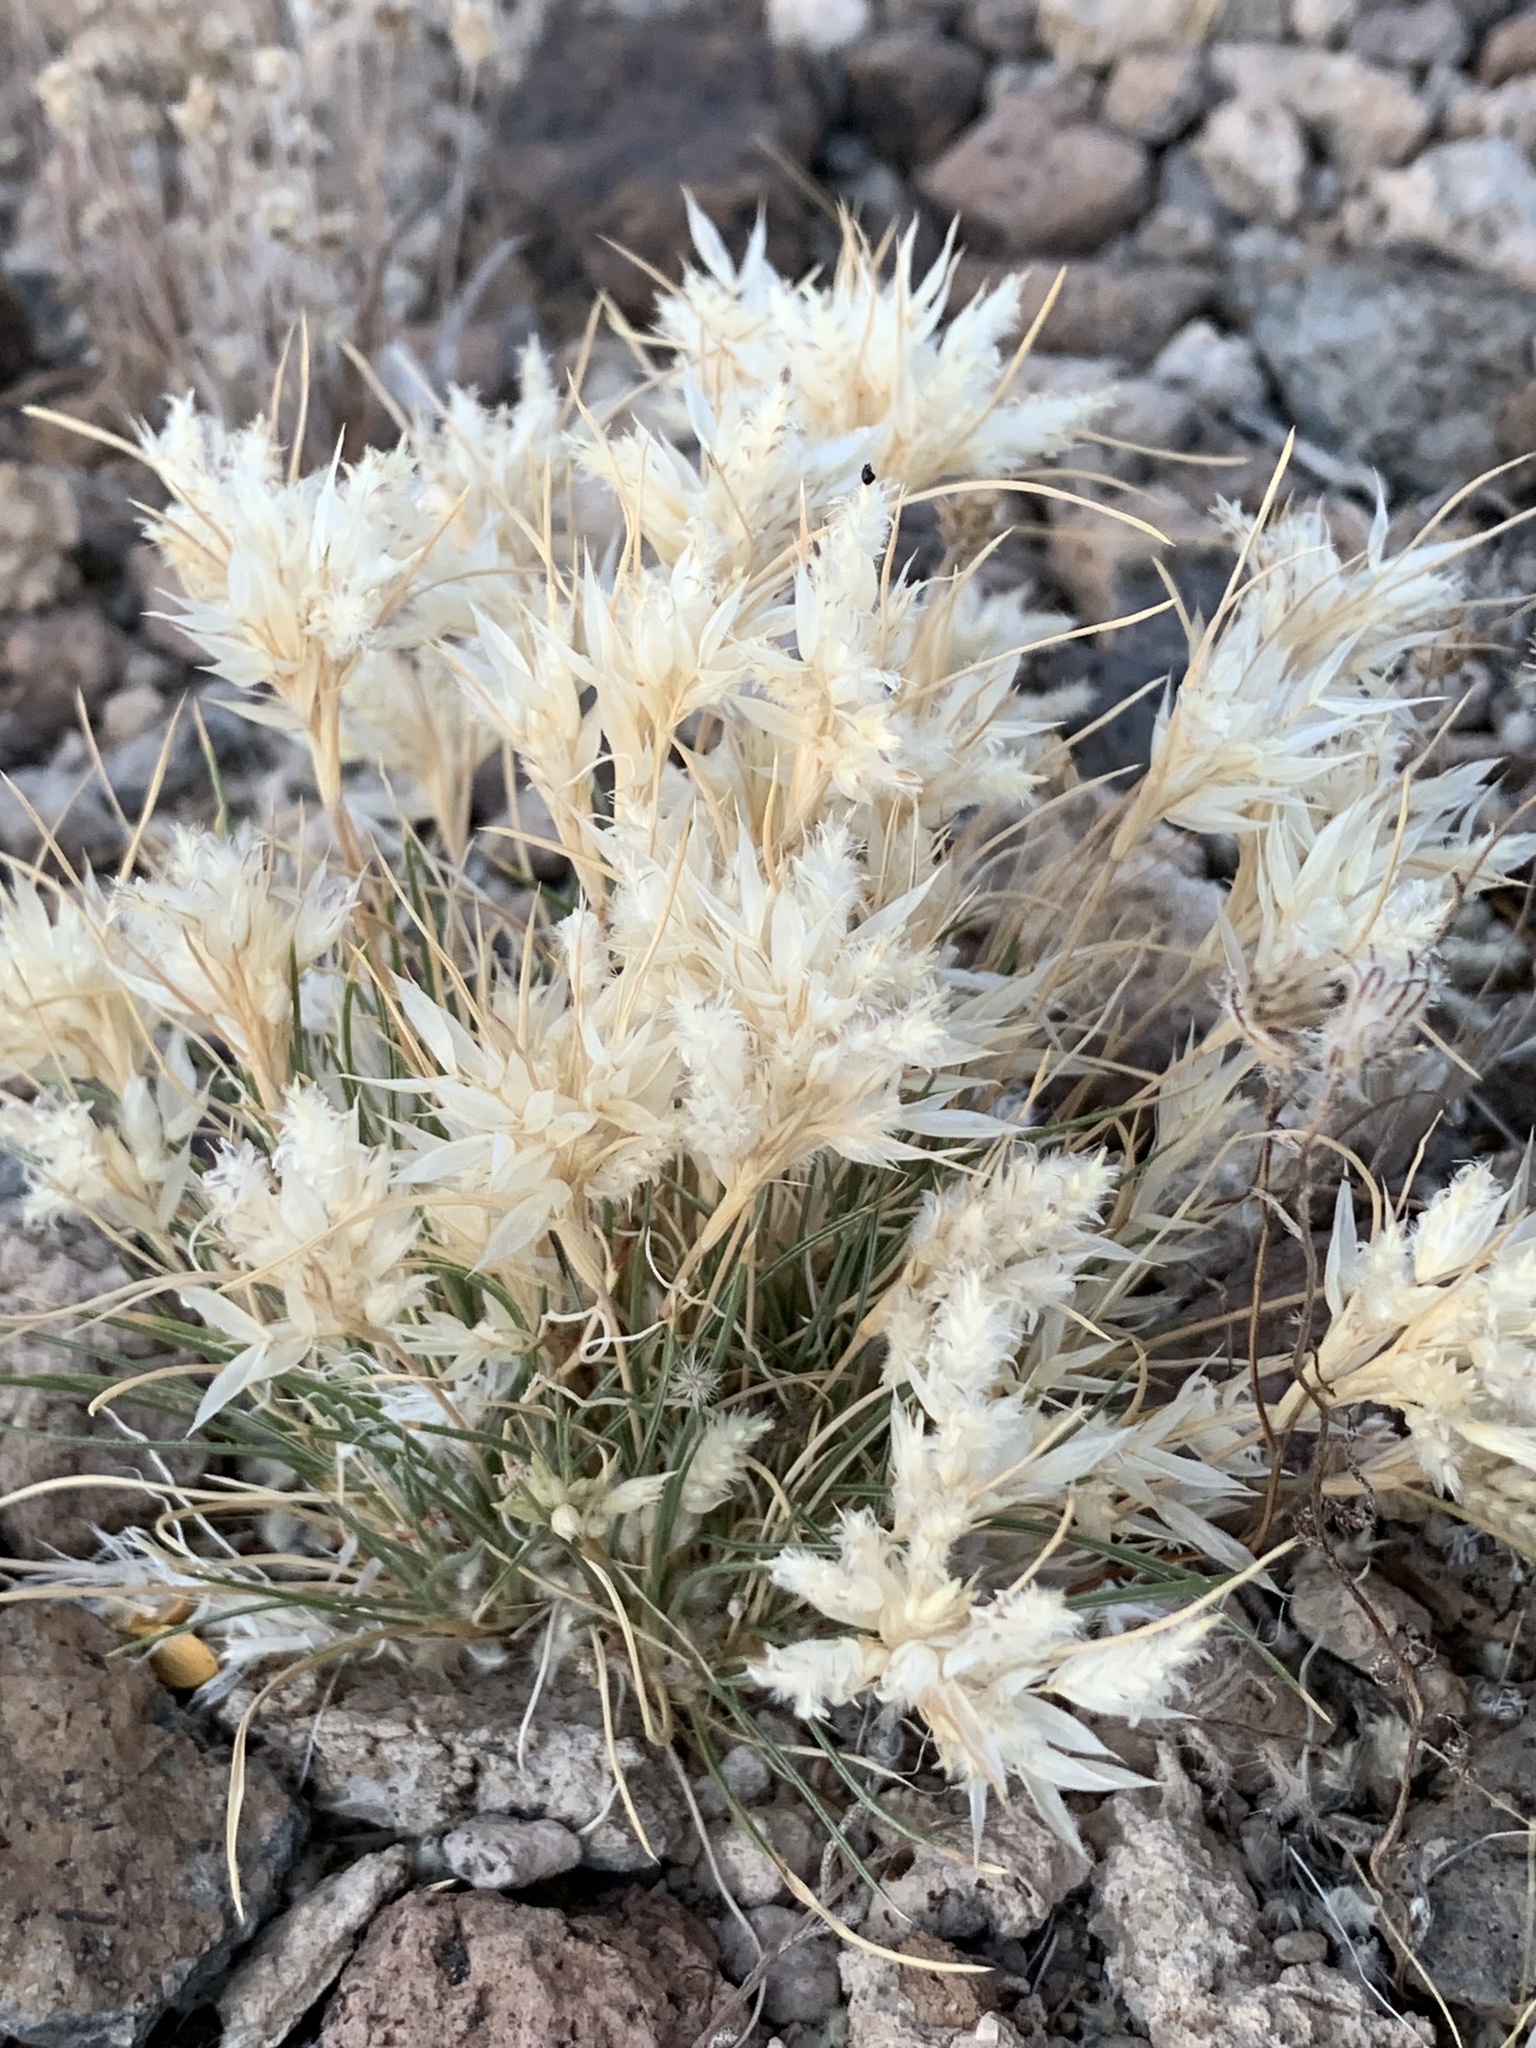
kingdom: Plantae
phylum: Tracheophyta
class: Liliopsida
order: Poales
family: Poaceae
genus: Dasyochloa
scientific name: Dasyochloa pulchella
